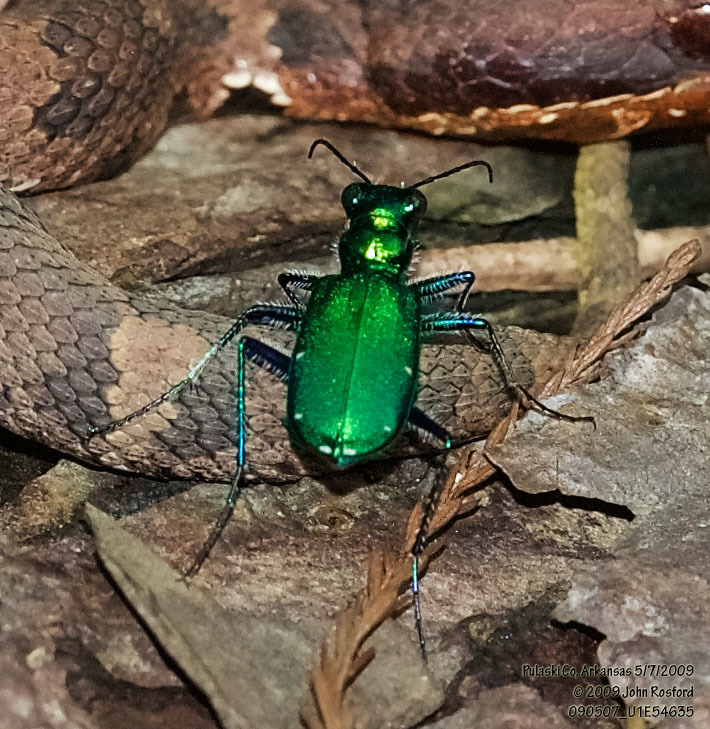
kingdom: Animalia
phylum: Arthropoda
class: Insecta
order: Coleoptera
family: Carabidae
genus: Cicindela
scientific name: Cicindela sexguttata
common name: Six-spotted tiger beetle
